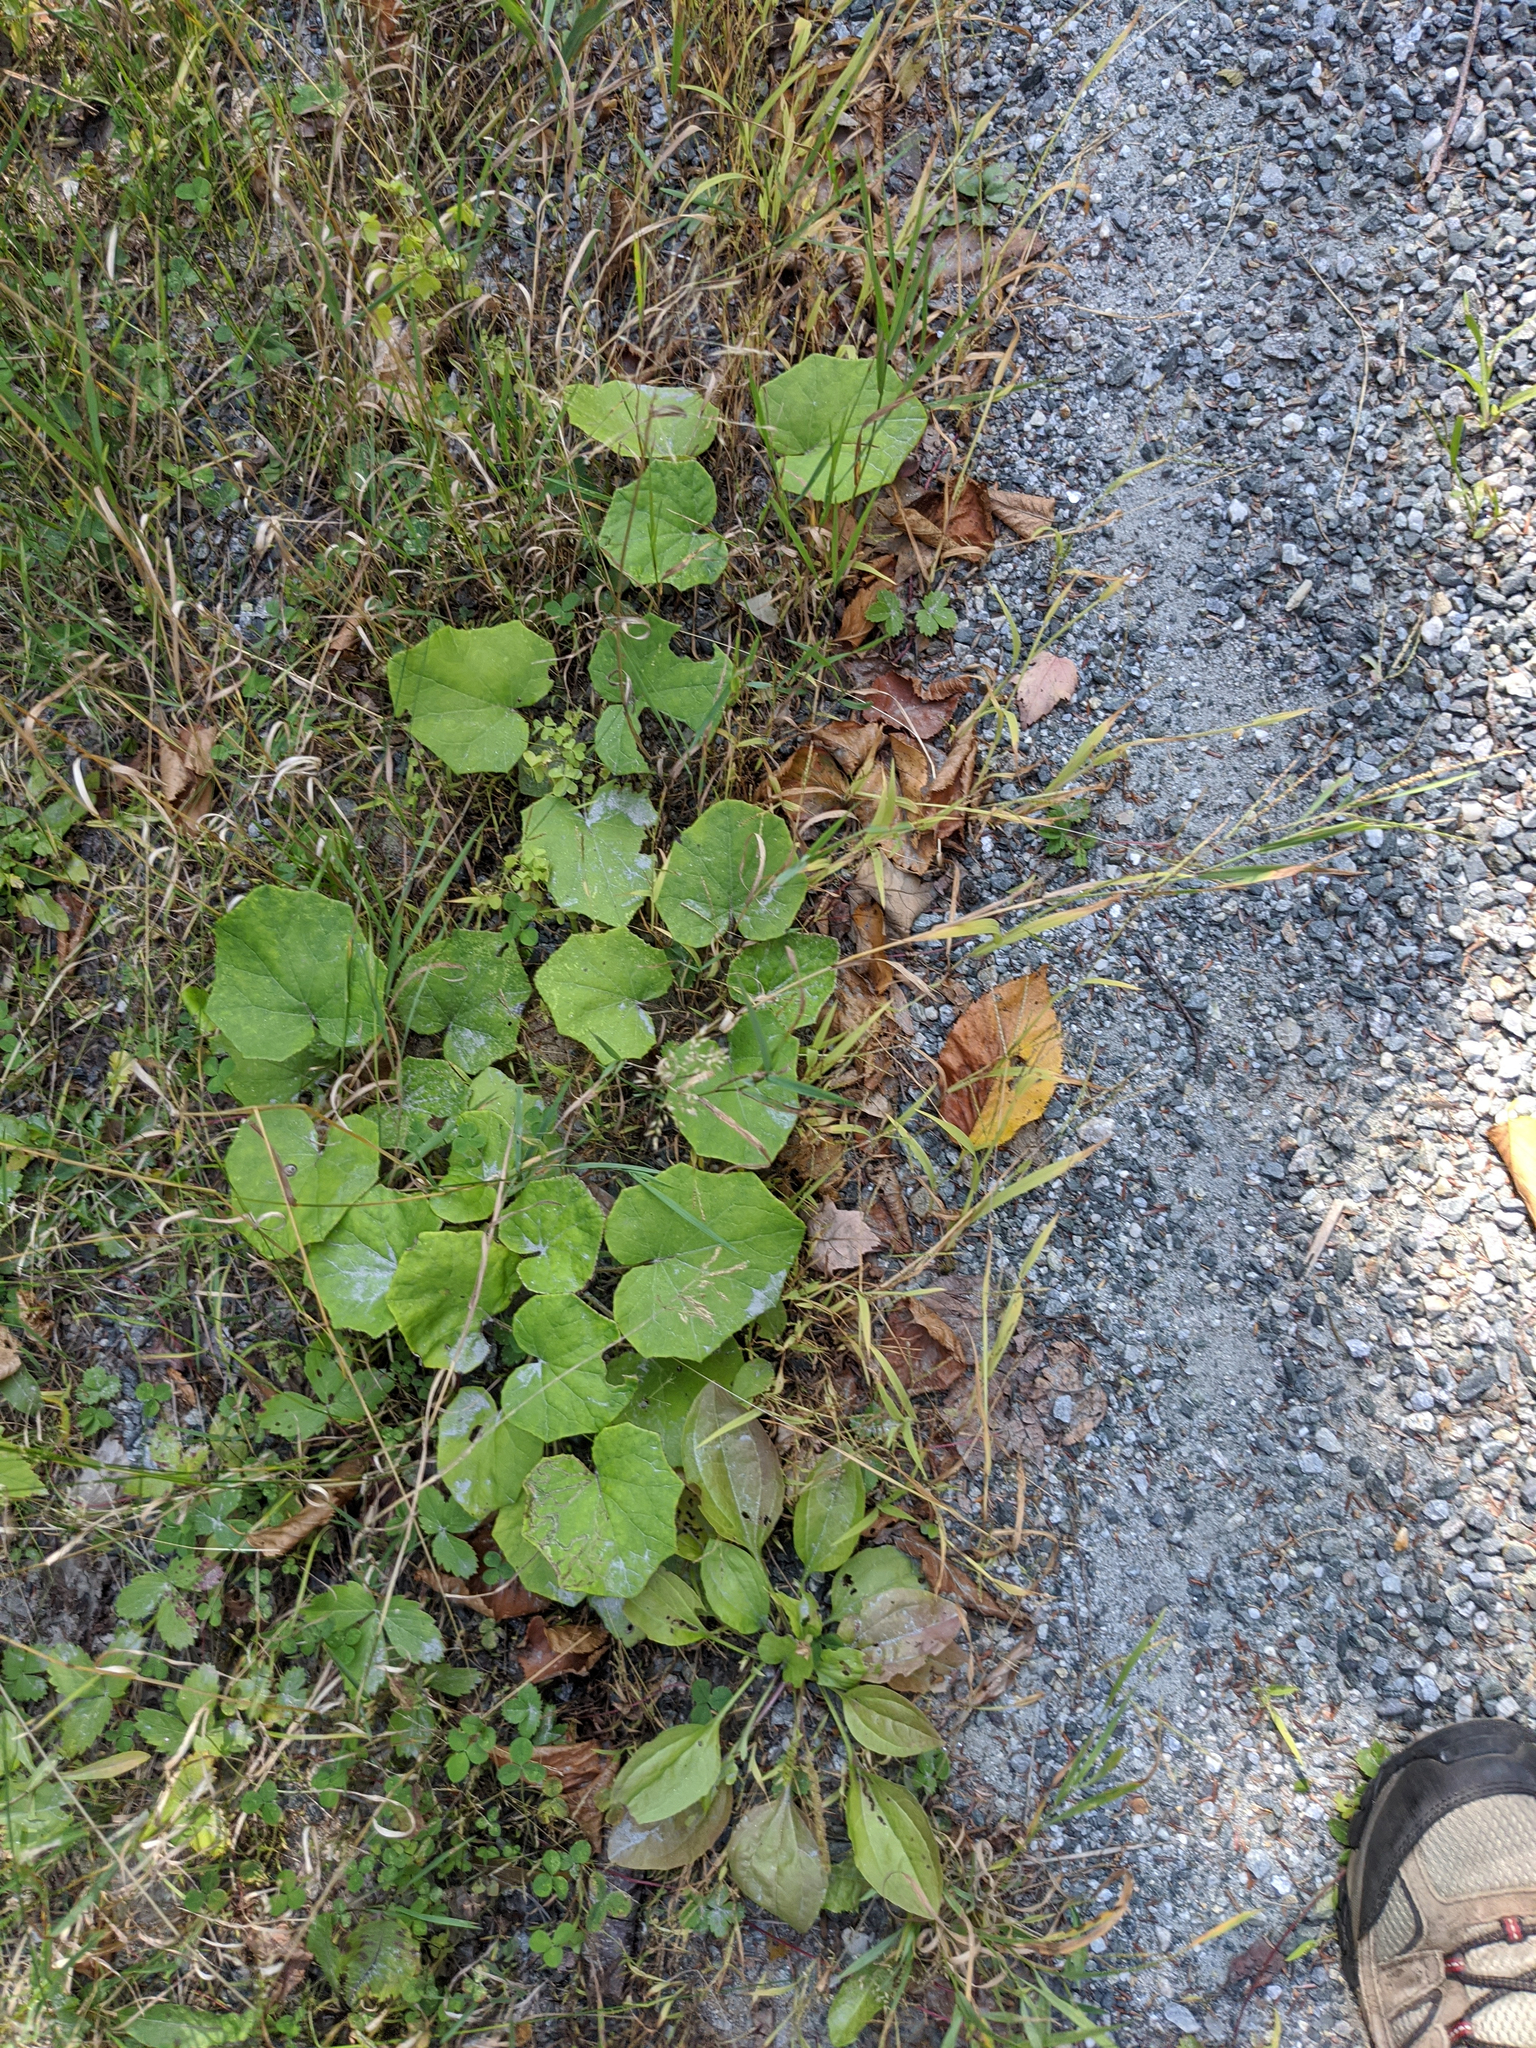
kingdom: Plantae
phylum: Tracheophyta
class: Magnoliopsida
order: Asterales
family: Asteraceae
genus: Tussilago
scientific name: Tussilago farfara
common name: Coltsfoot
